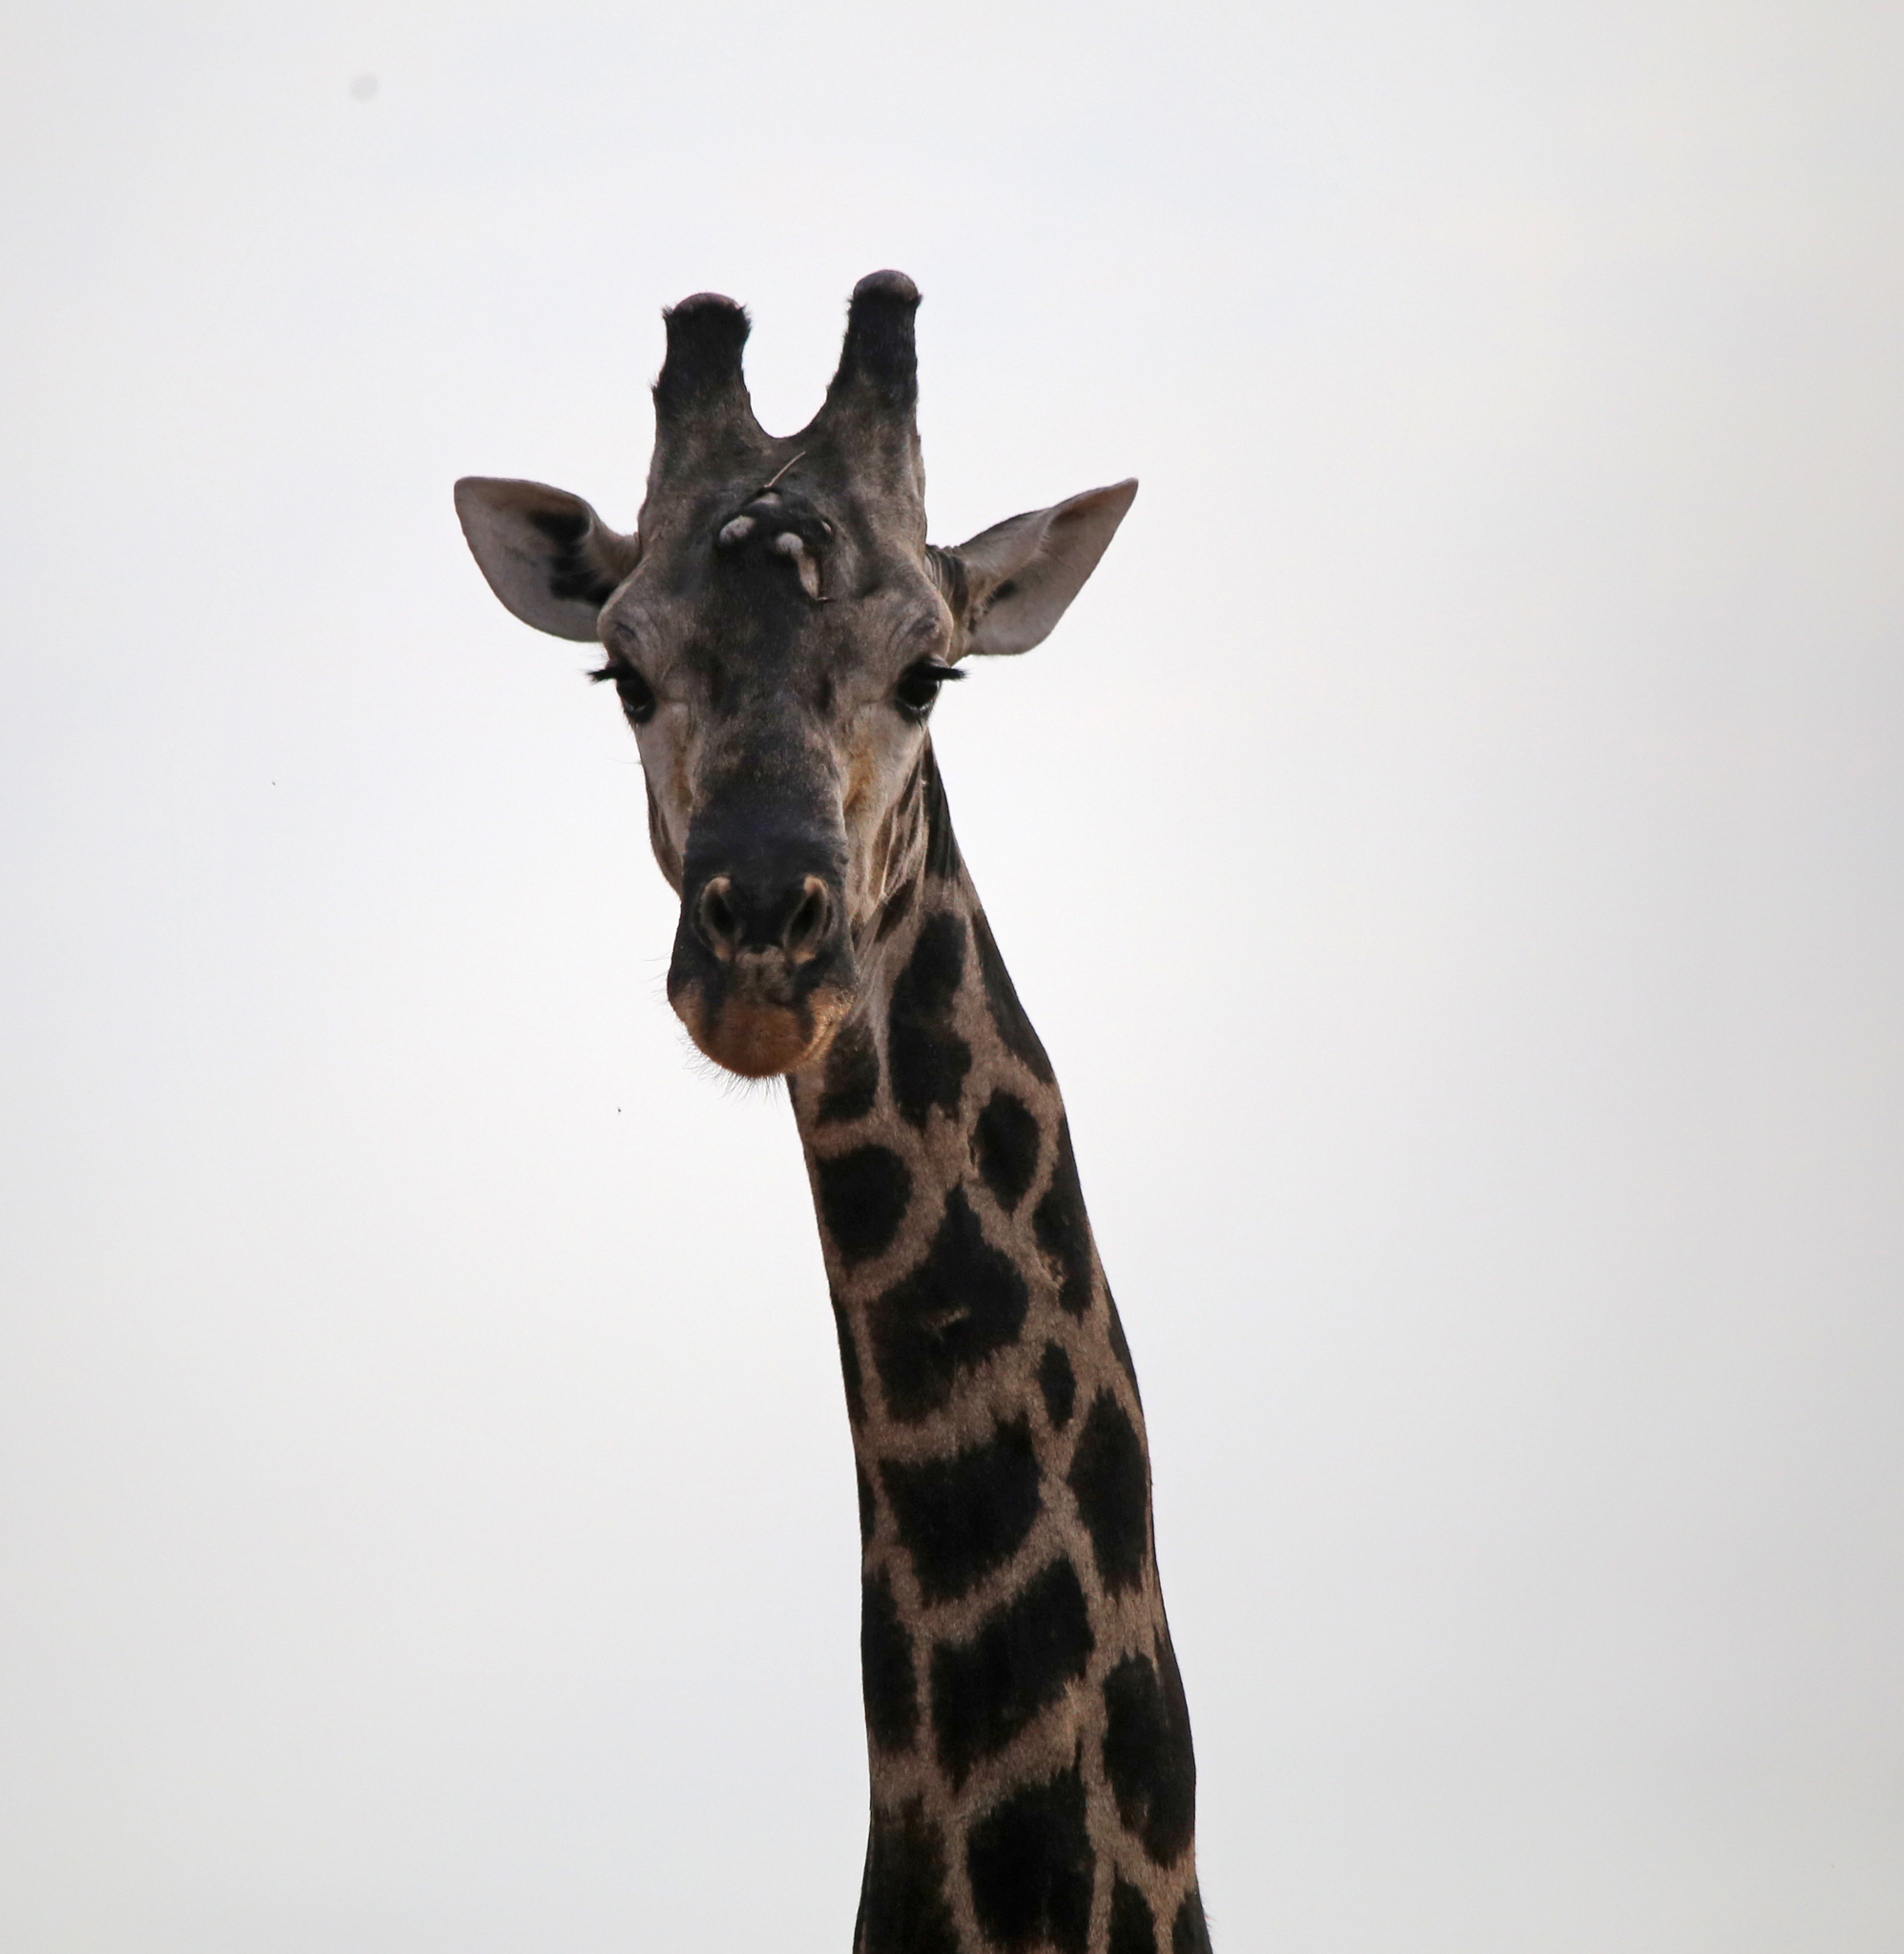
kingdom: Animalia
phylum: Chordata
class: Mammalia
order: Artiodactyla
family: Giraffidae
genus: Giraffa
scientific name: Giraffa giraffa
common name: Southern giraffe
